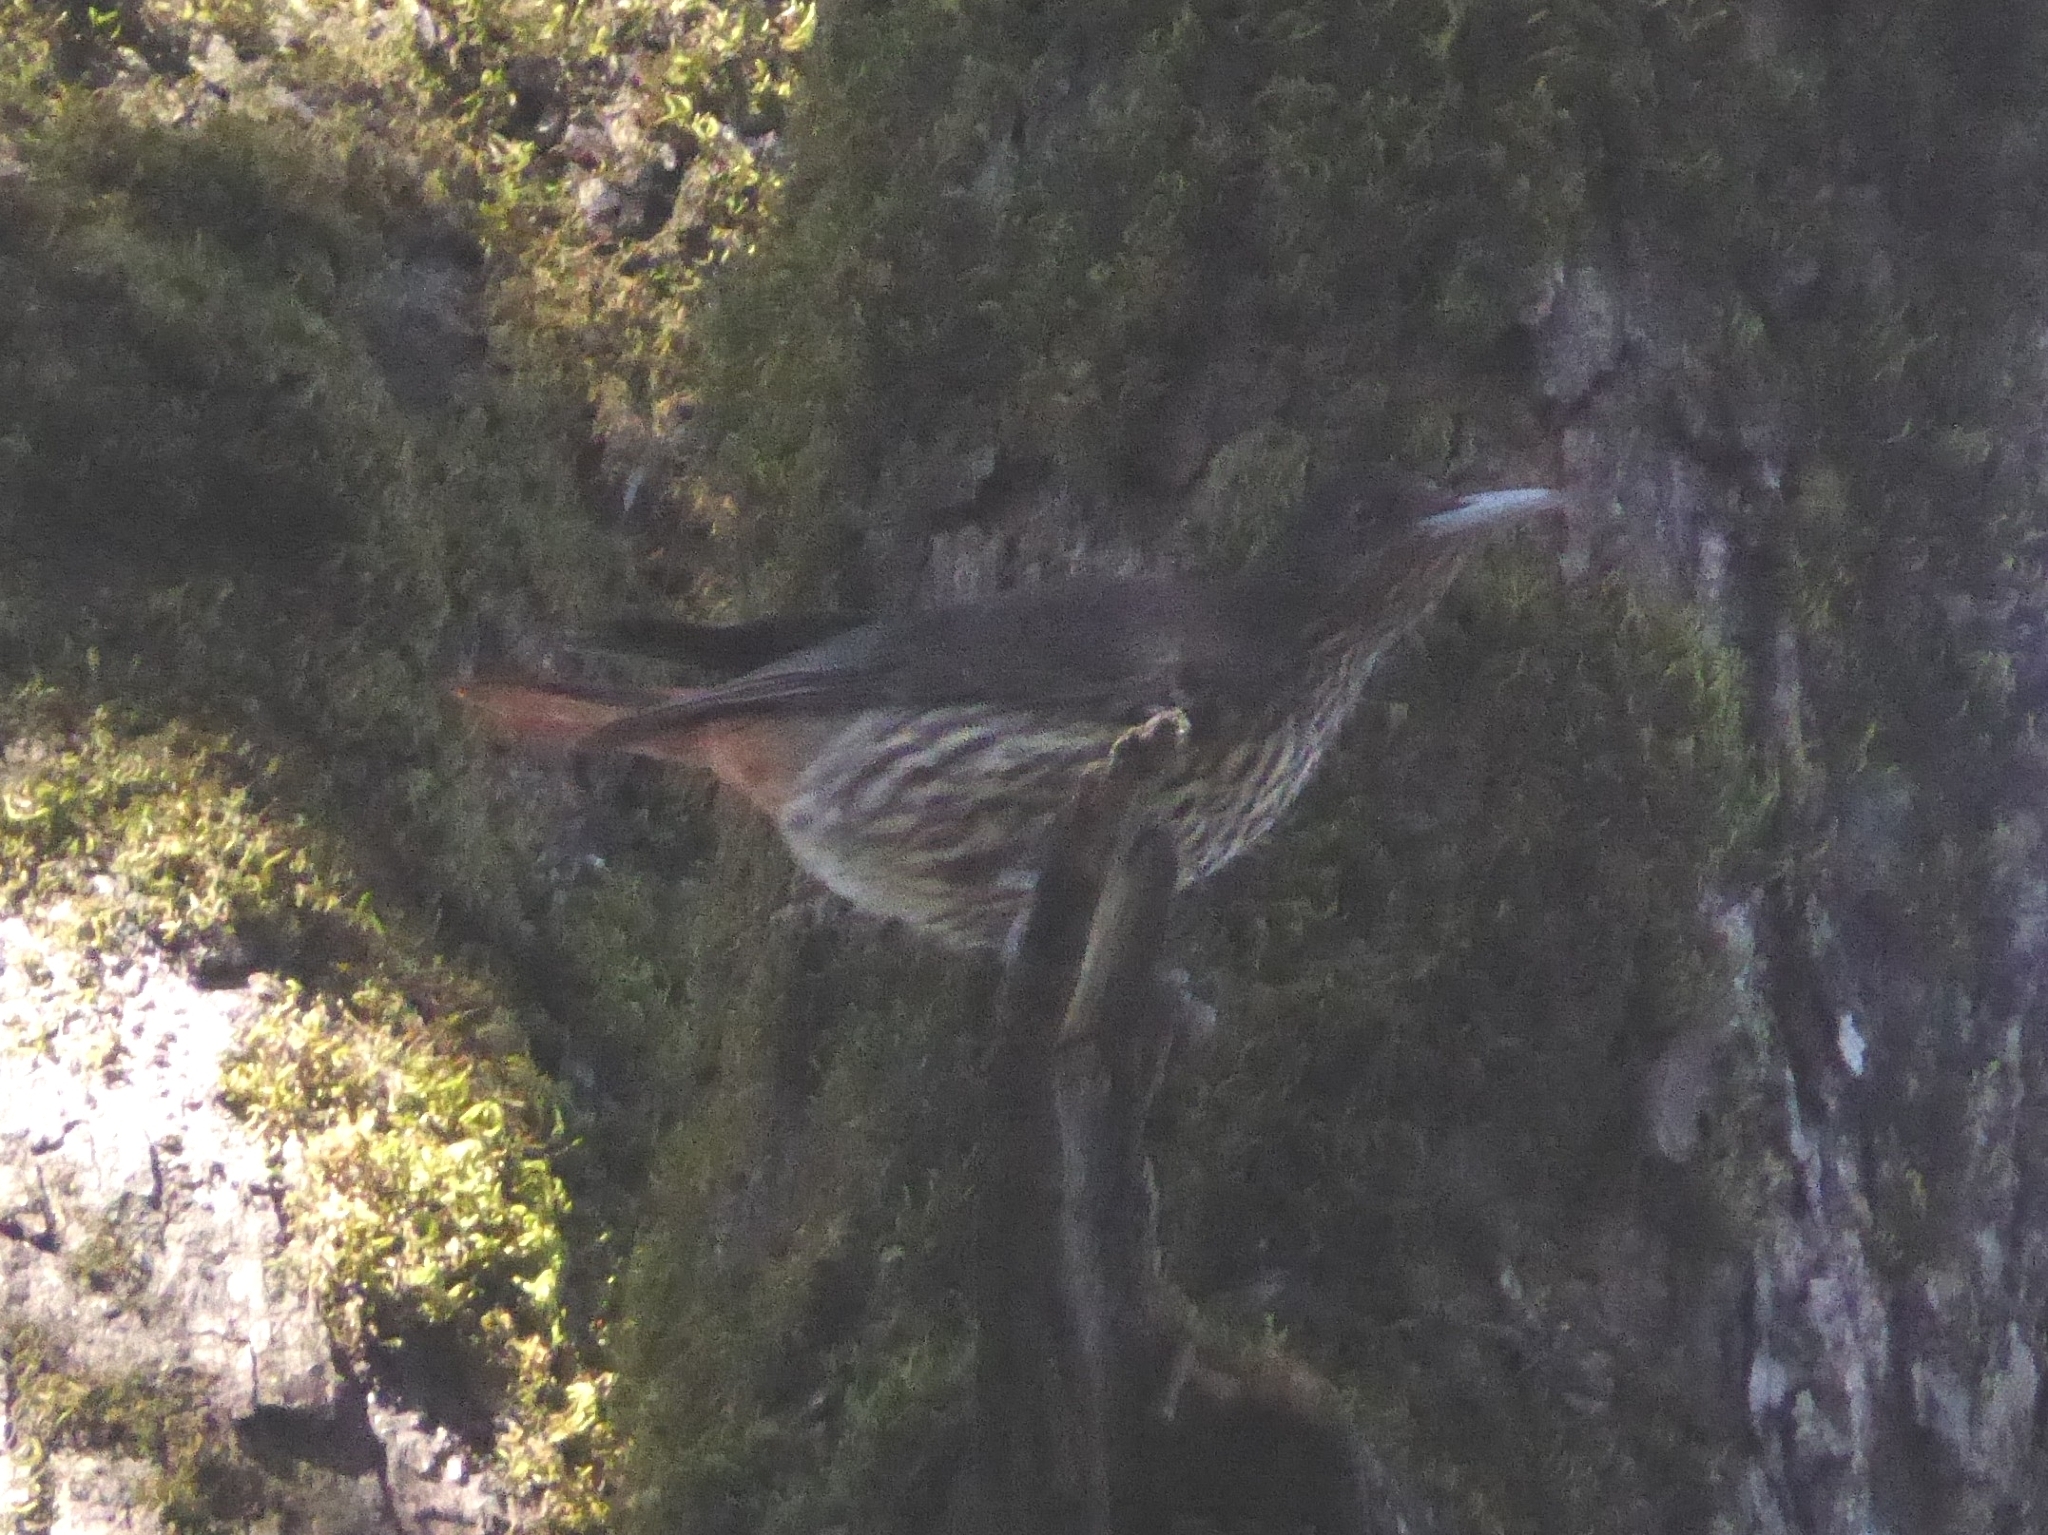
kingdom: Animalia
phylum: Chordata
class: Aves
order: Passeriformes
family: Oriolidae
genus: Oriolus
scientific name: Oriolus traillii
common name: Maroon oriole
